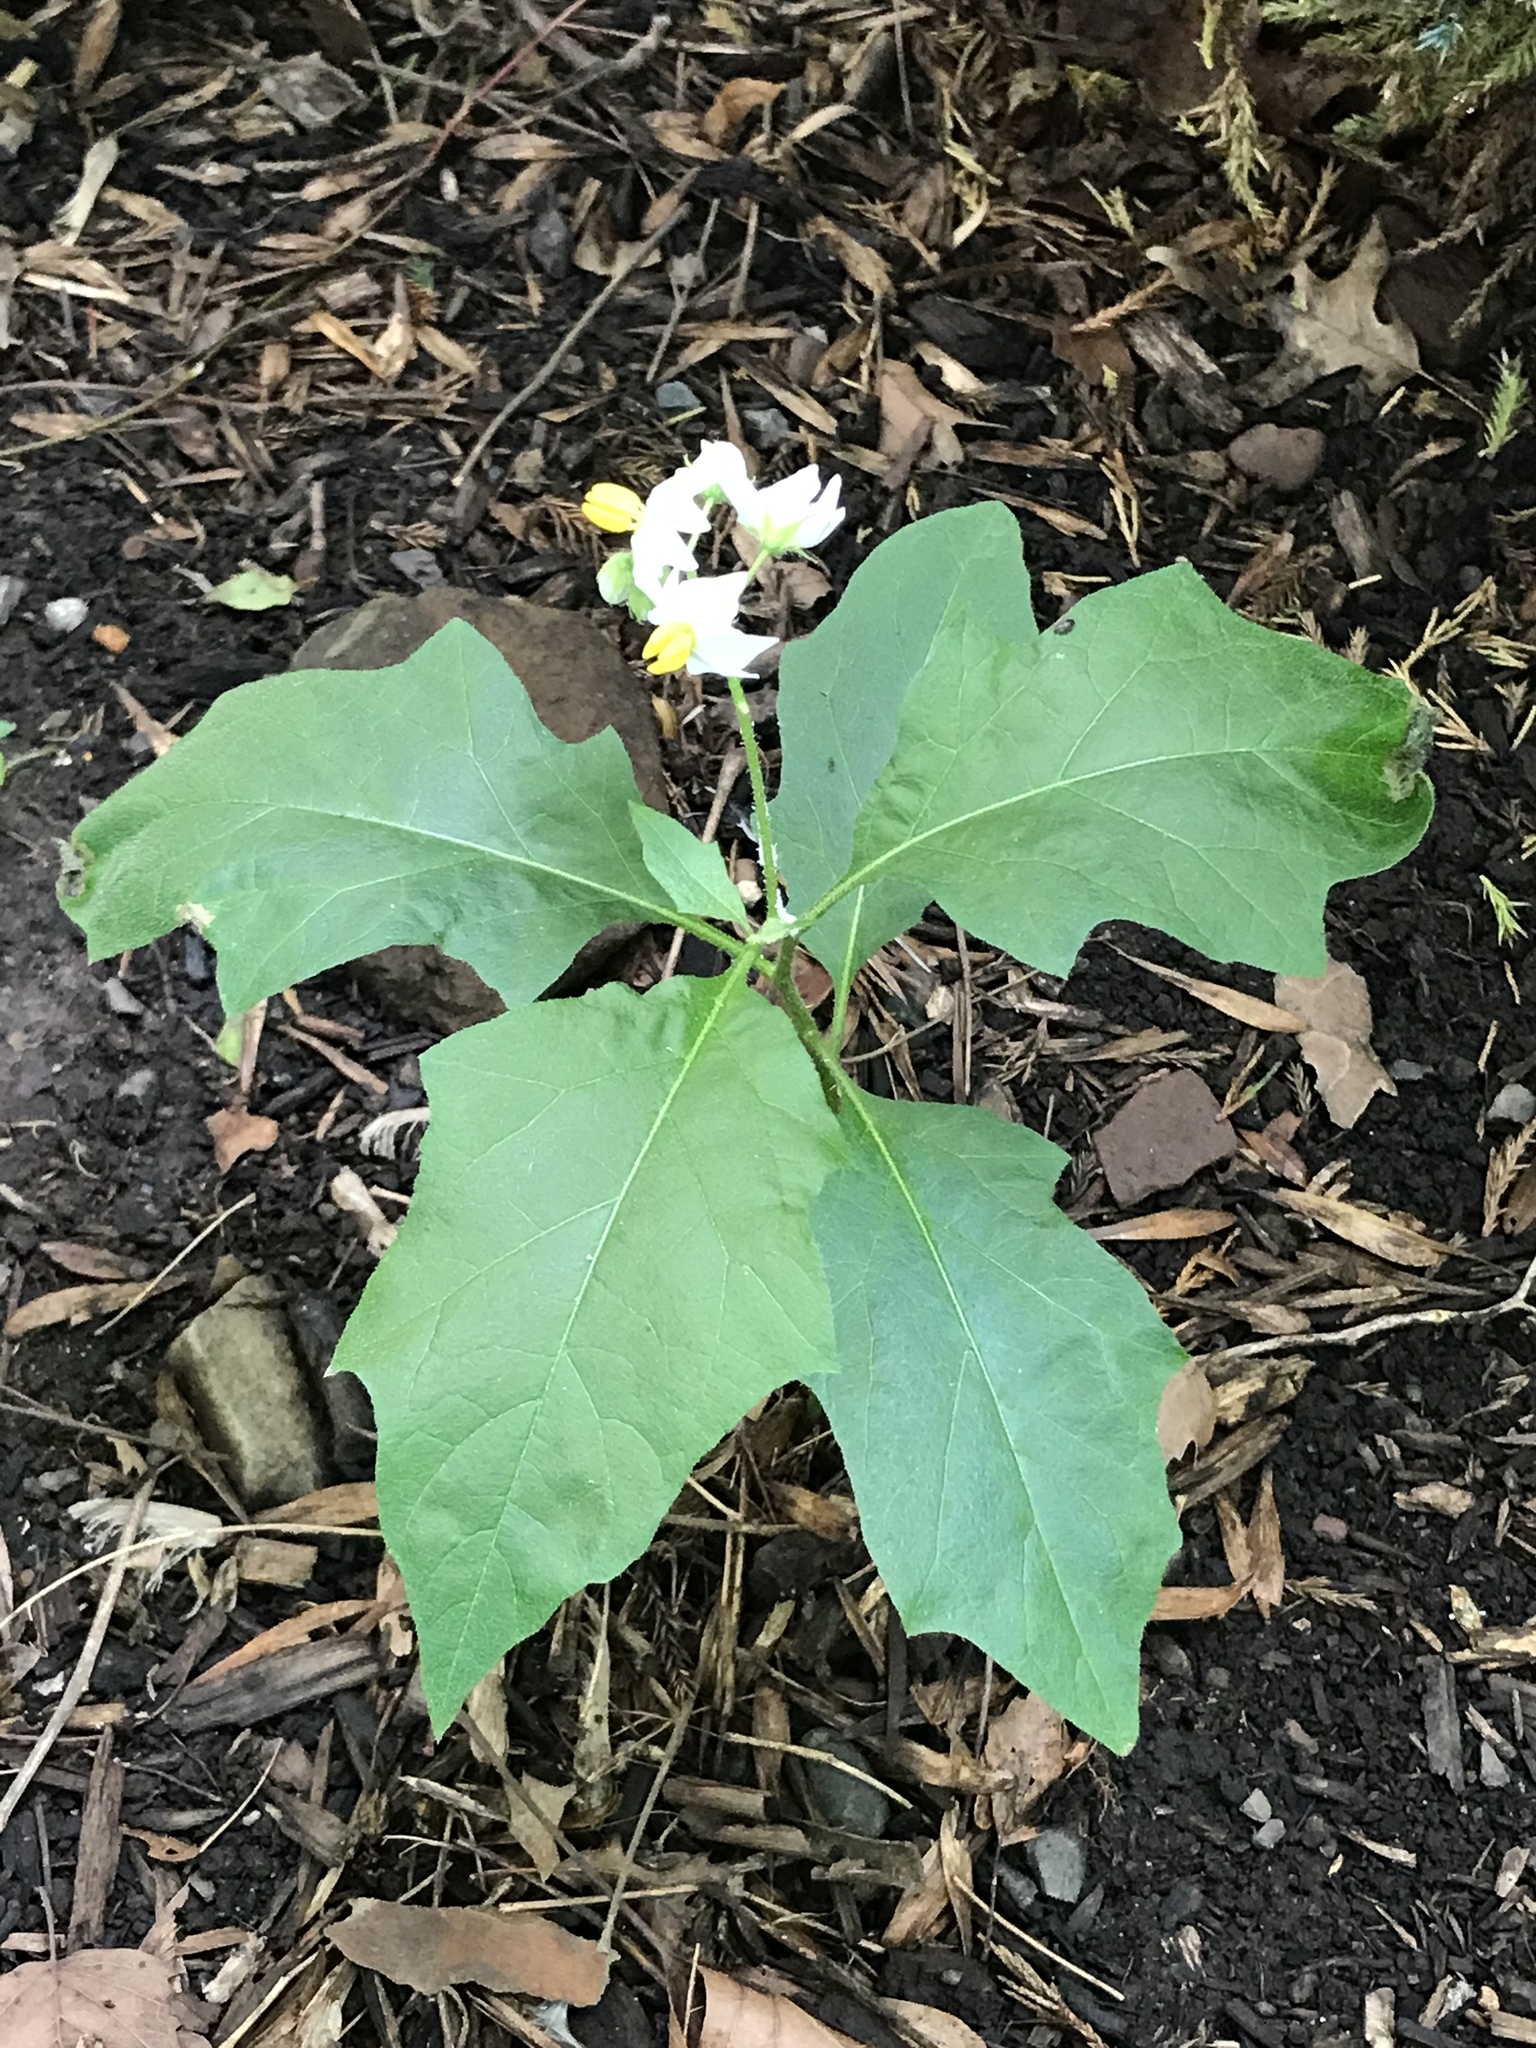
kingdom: Plantae
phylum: Tracheophyta
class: Magnoliopsida
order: Solanales
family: Solanaceae
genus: Solanum
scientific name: Solanum carolinense
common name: Horse-nettle
